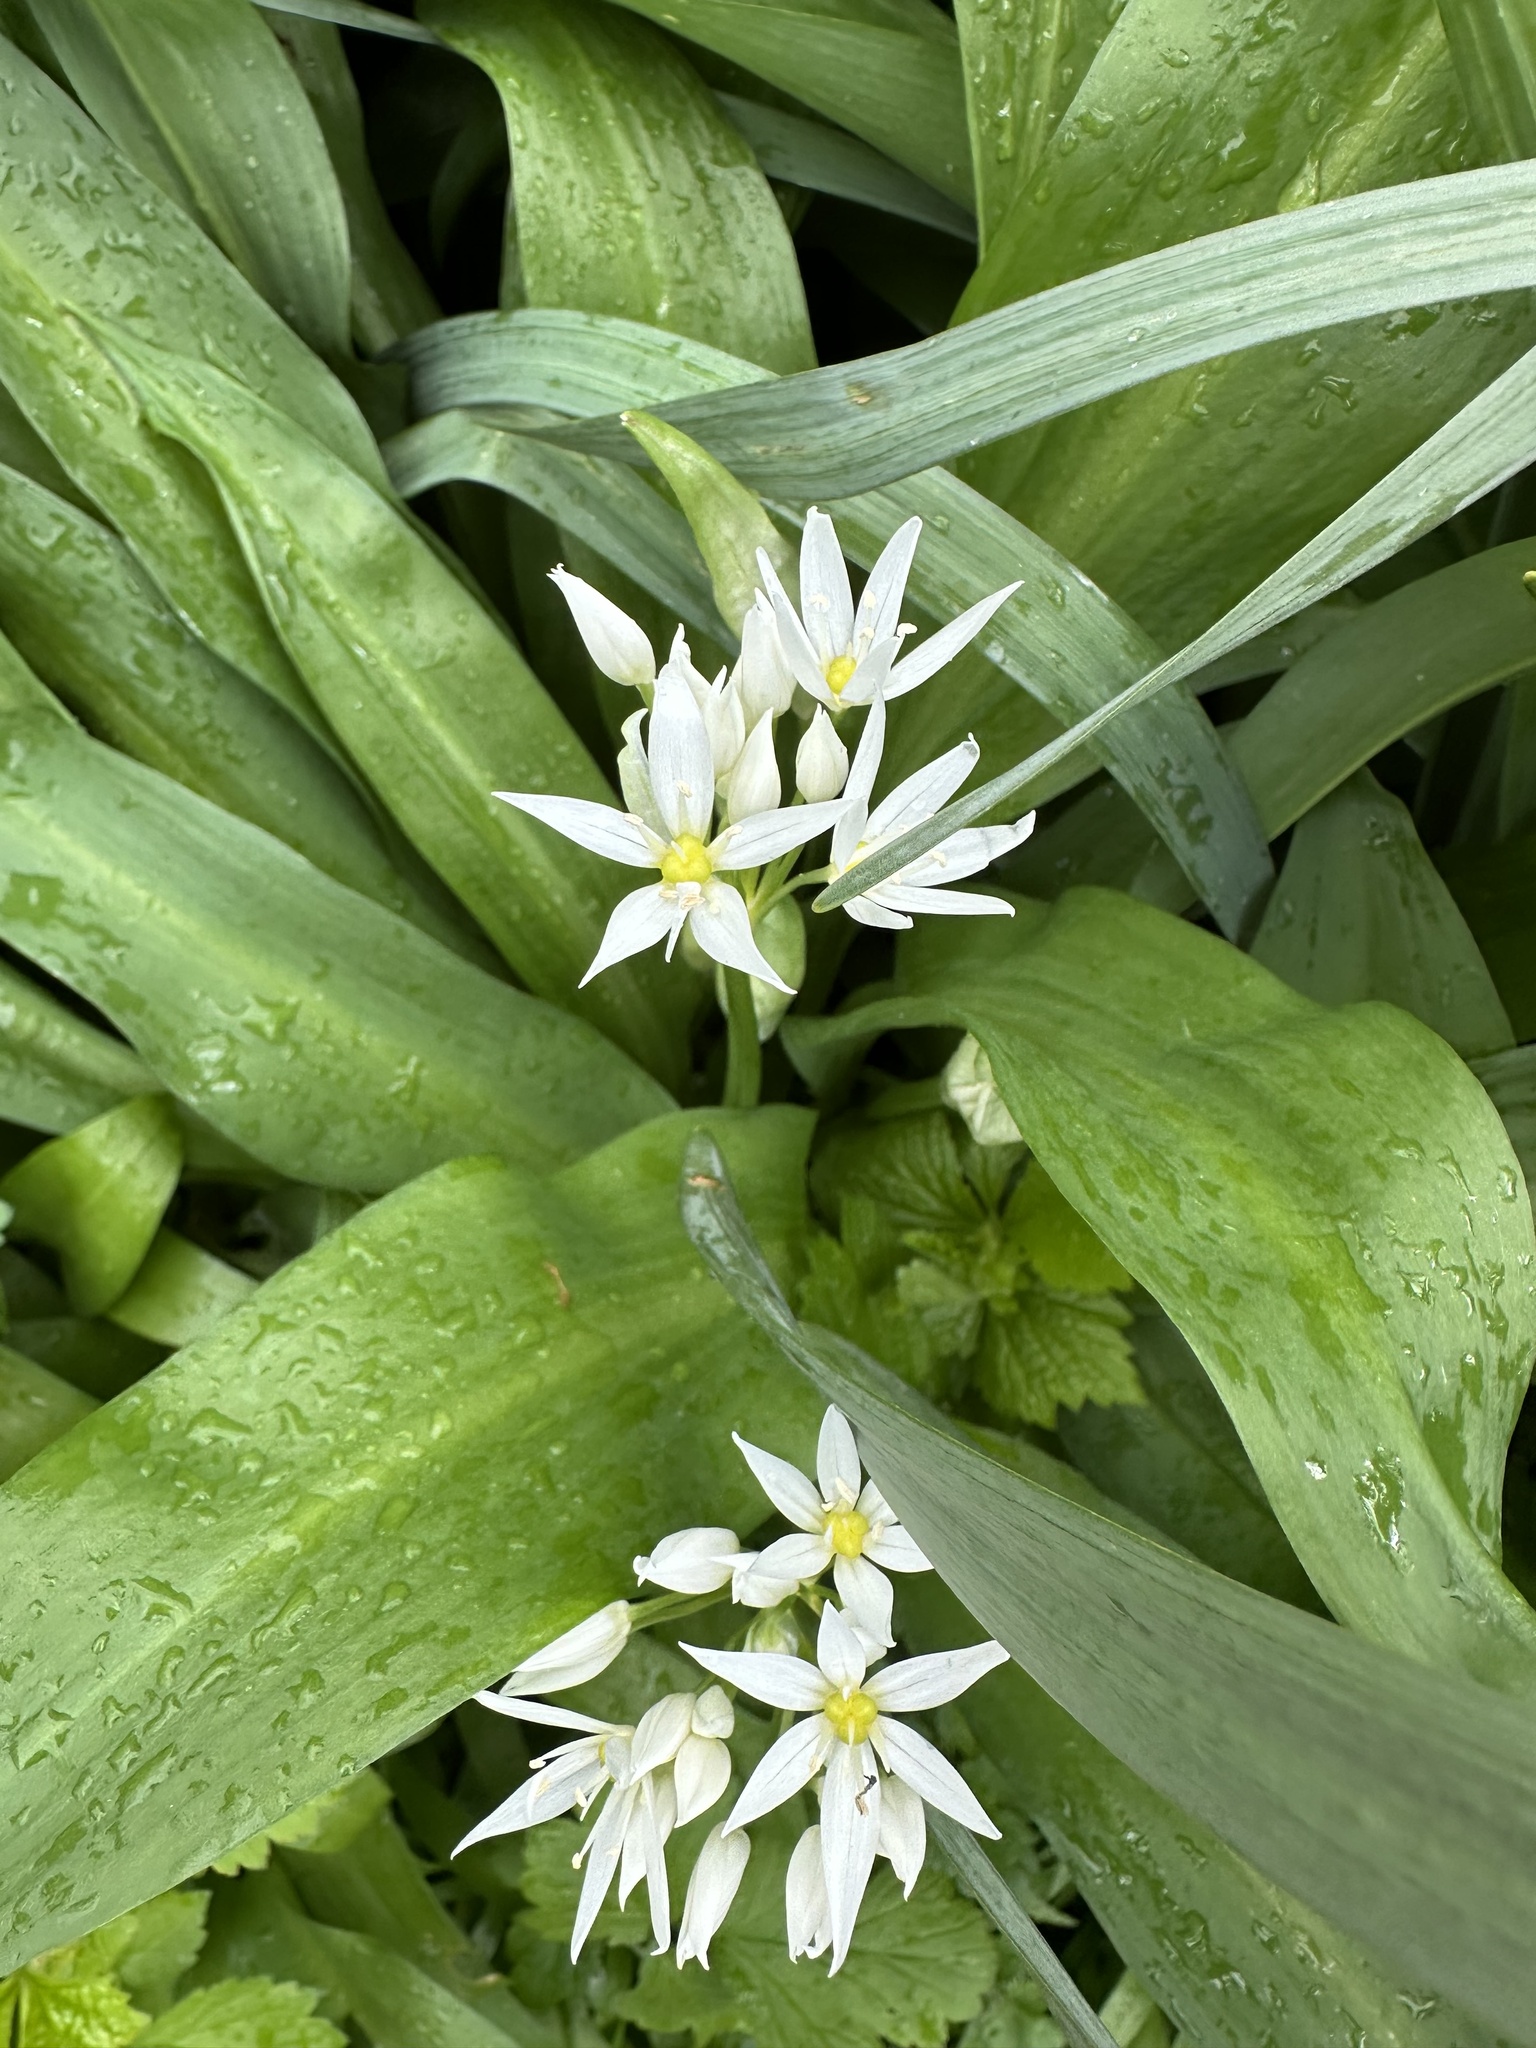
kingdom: Plantae
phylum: Tracheophyta
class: Liliopsida
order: Asparagales
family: Amaryllidaceae
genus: Allium
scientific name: Allium ursinum
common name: Ramsons
